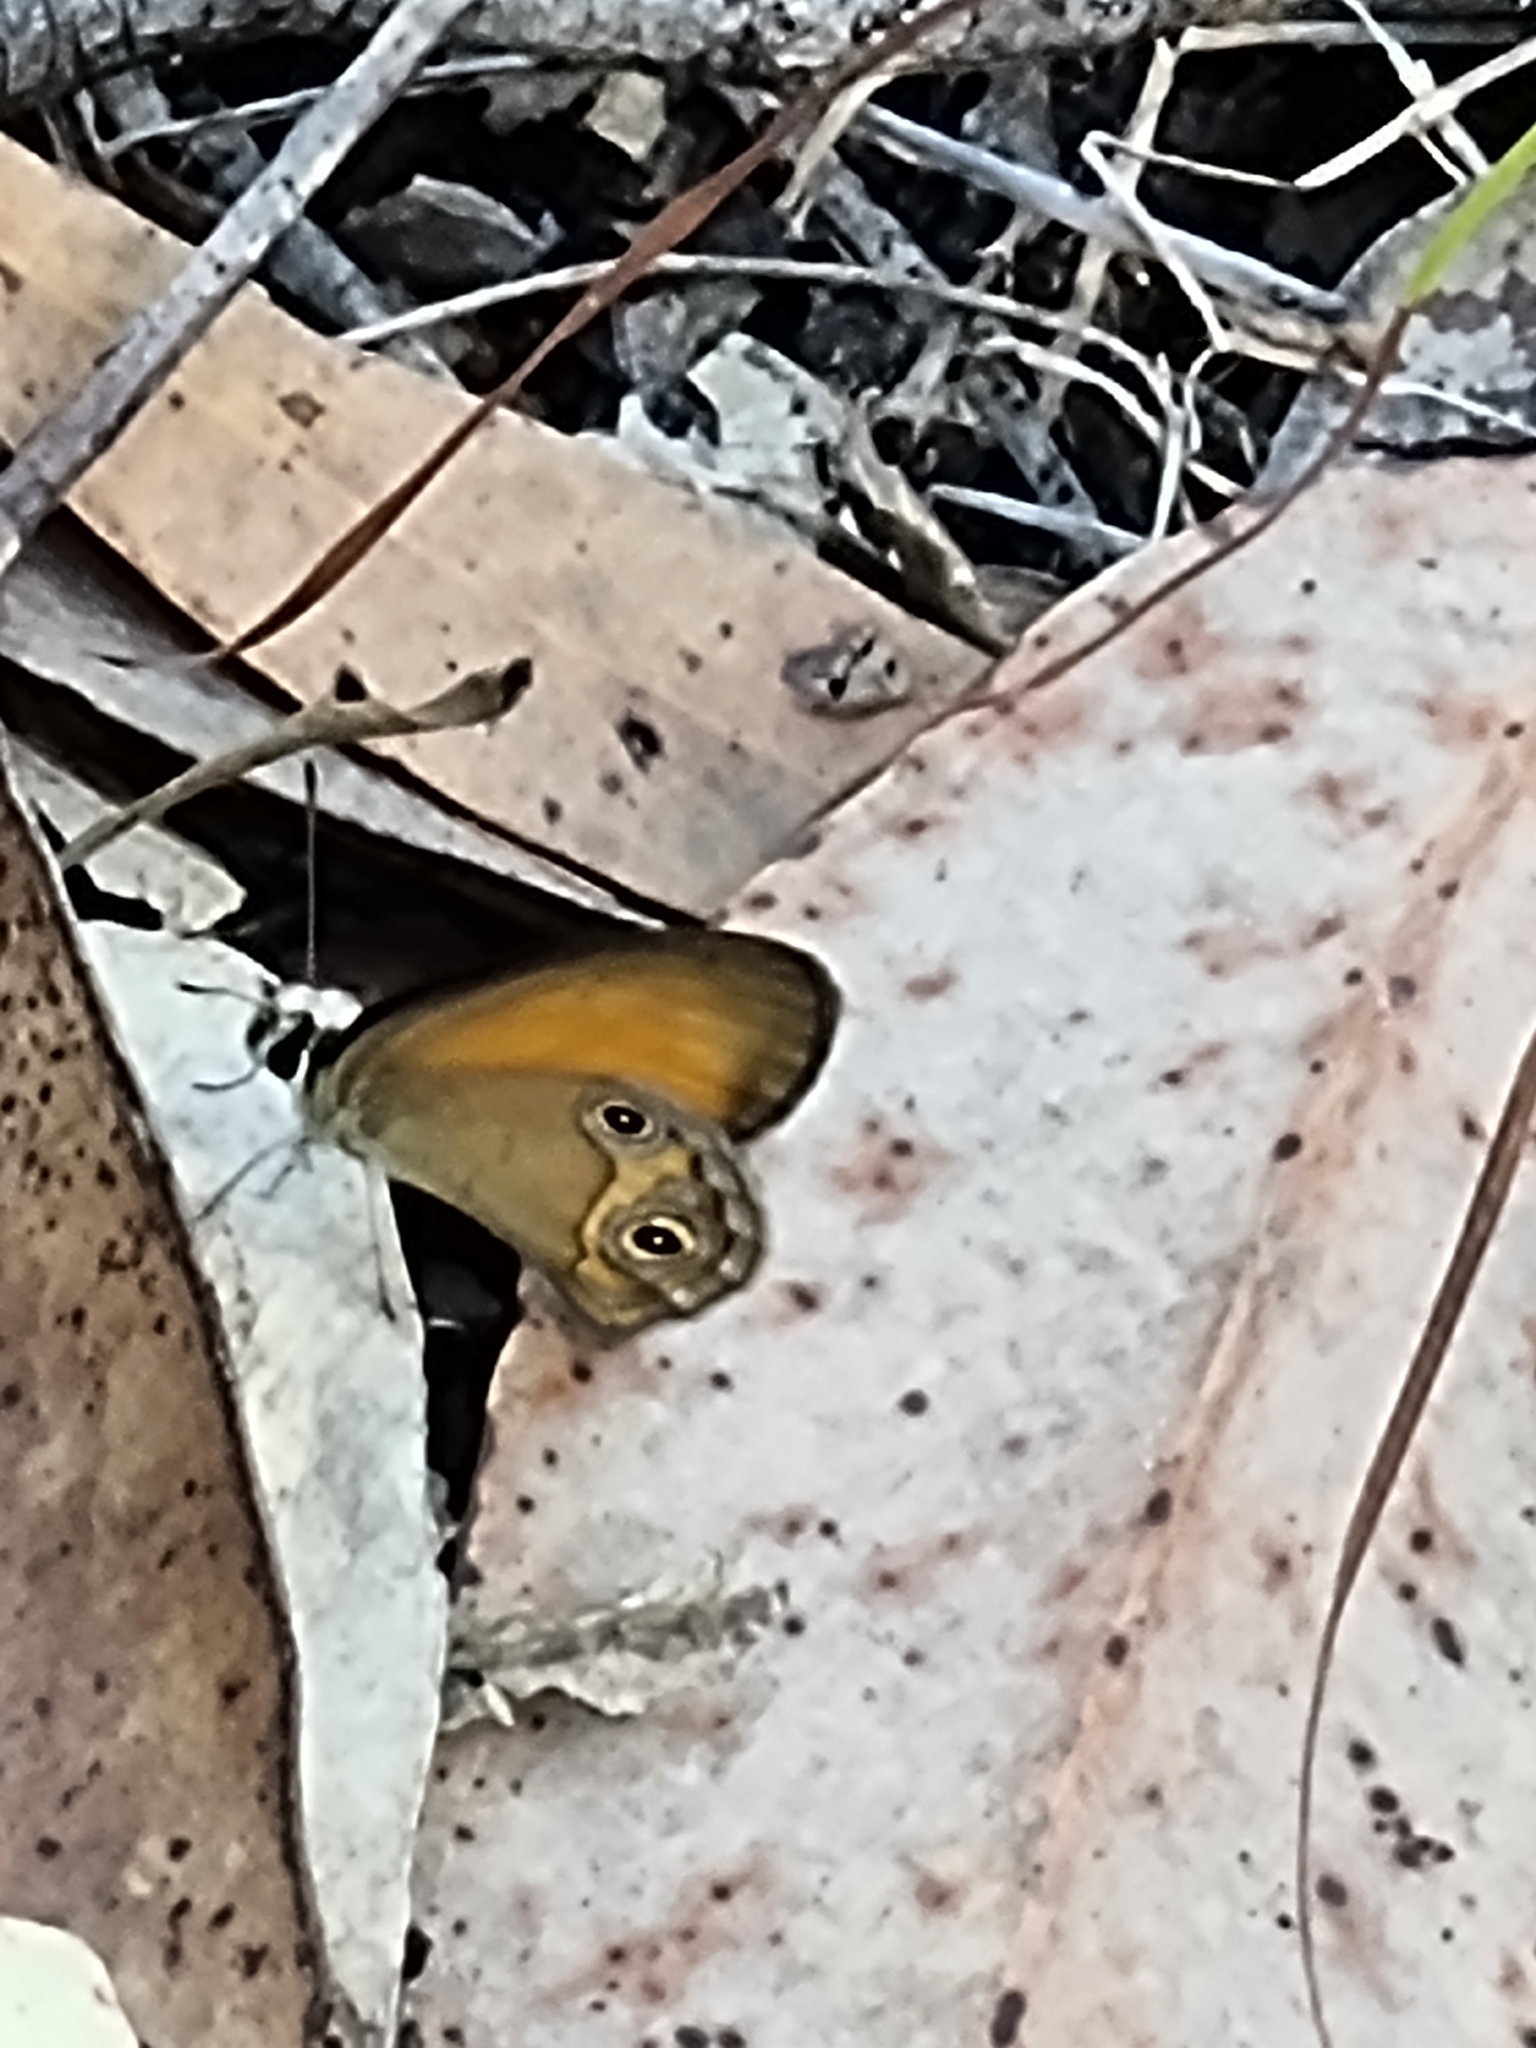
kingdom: Animalia
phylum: Arthropoda
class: Insecta
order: Lepidoptera
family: Nymphalidae
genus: Hypocysta
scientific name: Hypocysta adiante
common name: Orange ringlet
